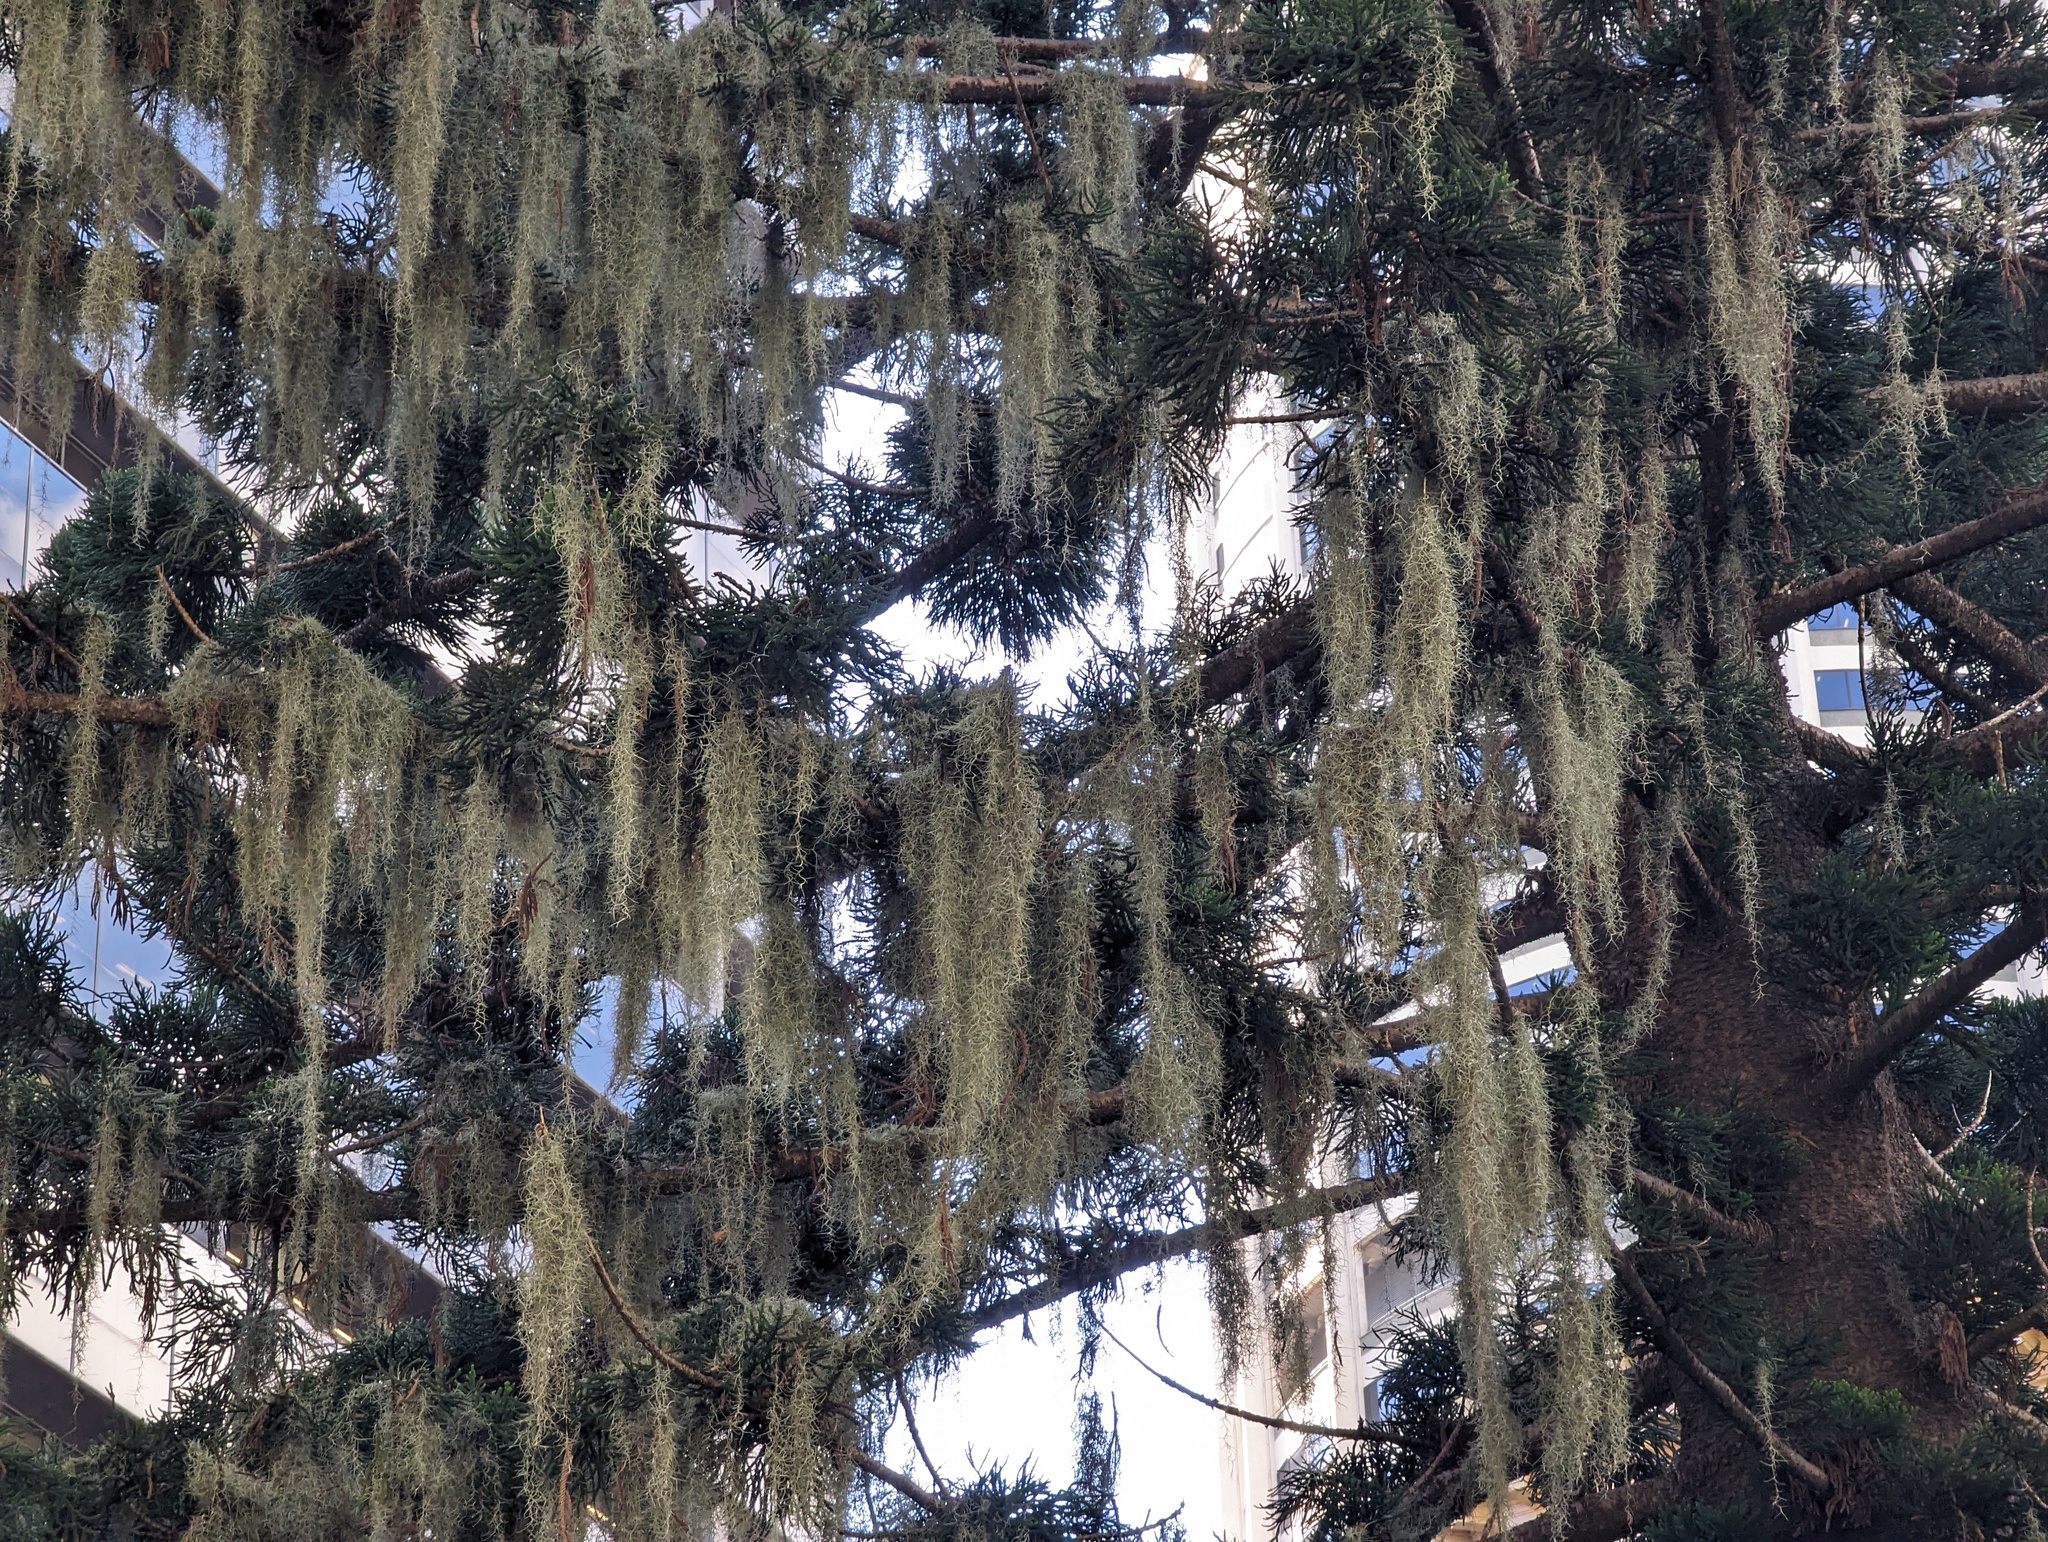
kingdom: Plantae
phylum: Tracheophyta
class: Liliopsida
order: Poales
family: Bromeliaceae
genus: Tillandsia
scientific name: Tillandsia usneoides
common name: Spanish moss
